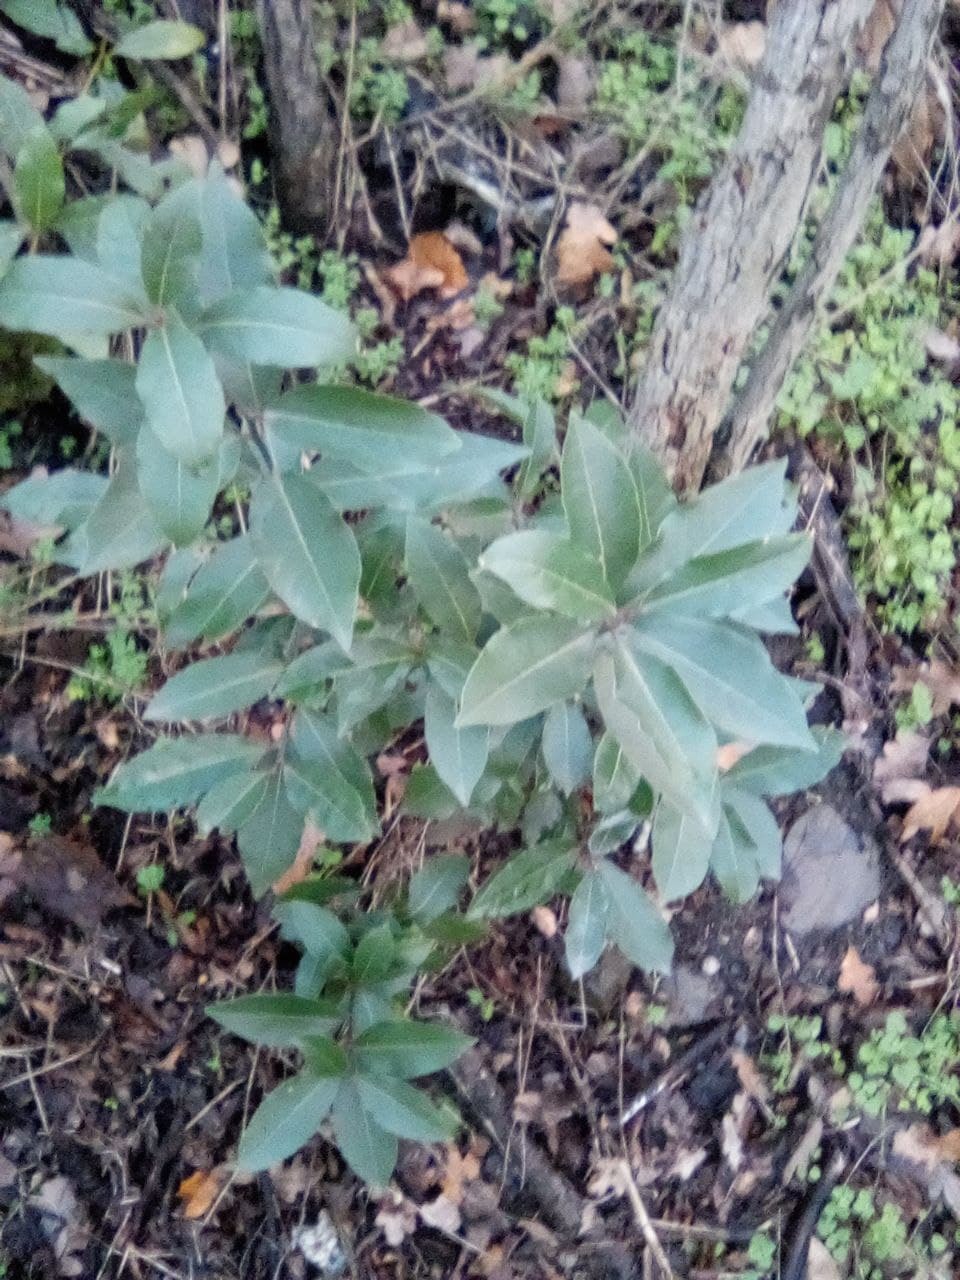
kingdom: Plantae
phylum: Tracheophyta
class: Magnoliopsida
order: Laurales
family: Lauraceae
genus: Laurus
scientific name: Laurus nobilis
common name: Bay
